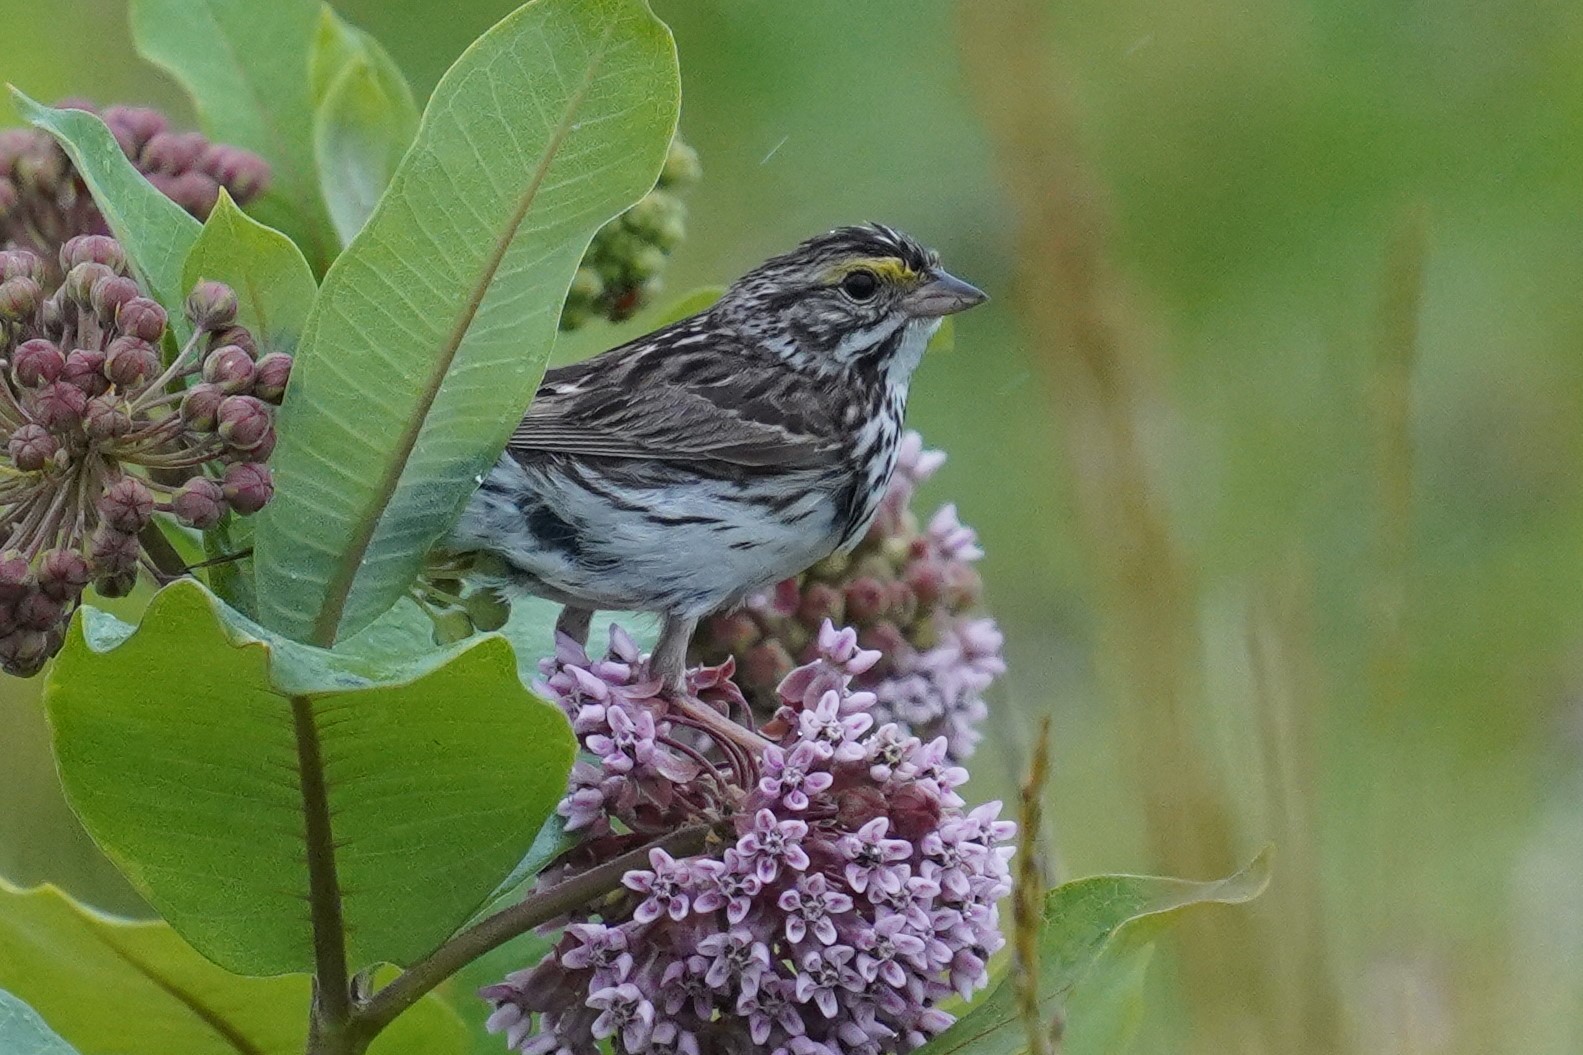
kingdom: Animalia
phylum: Chordata
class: Aves
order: Passeriformes
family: Passerellidae
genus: Passerculus
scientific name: Passerculus sandwichensis
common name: Savannah sparrow
